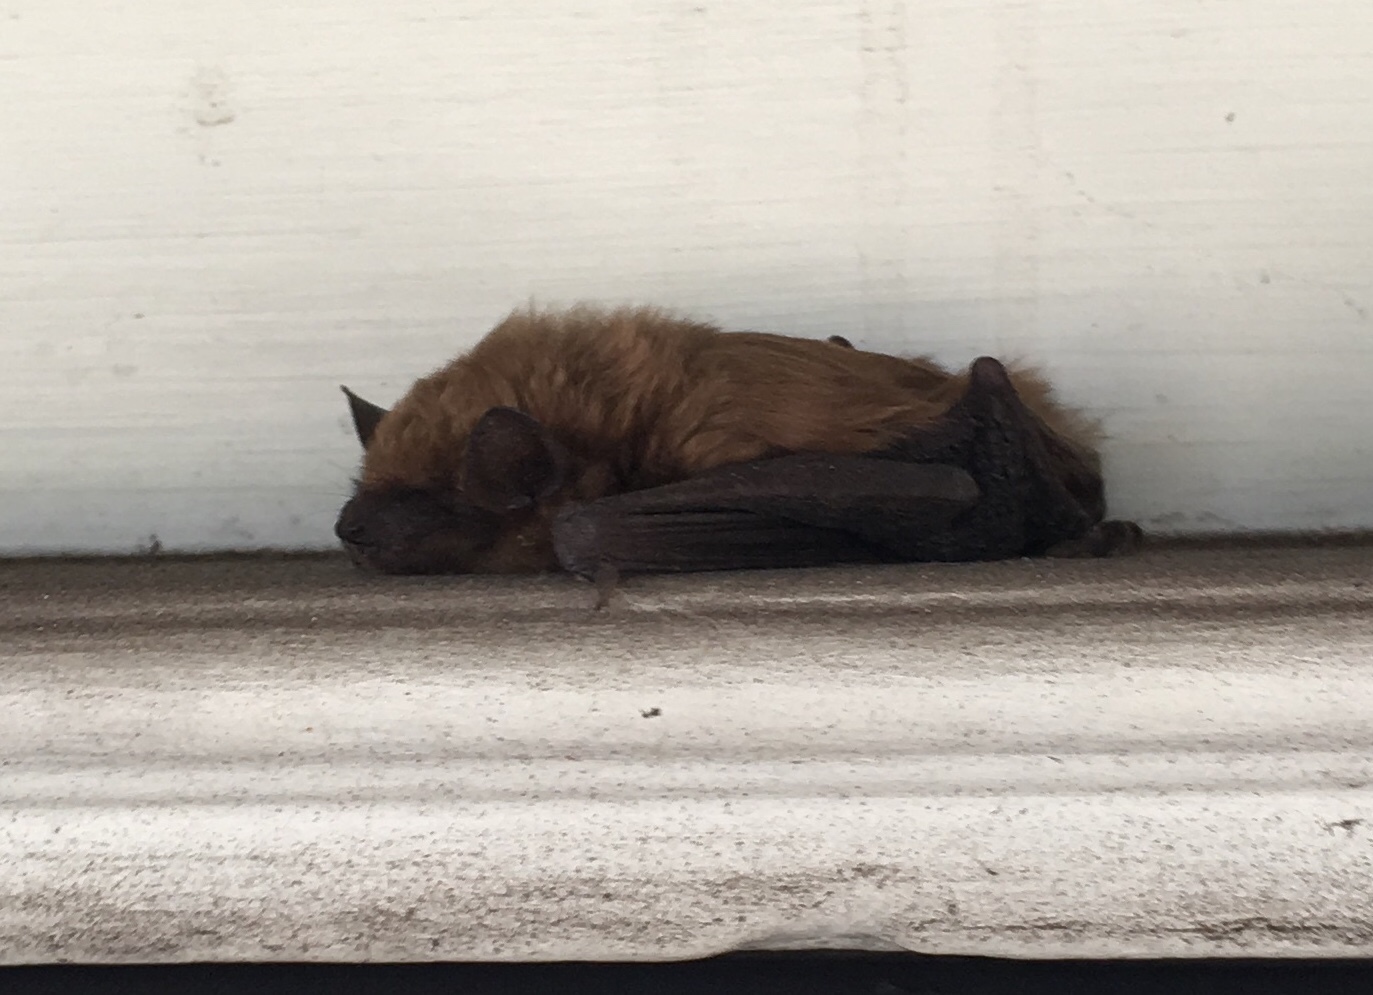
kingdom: Animalia
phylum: Chordata
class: Mammalia
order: Chiroptera
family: Vespertilionidae
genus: Eptesicus
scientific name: Eptesicus fuscus
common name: Big brown bat
